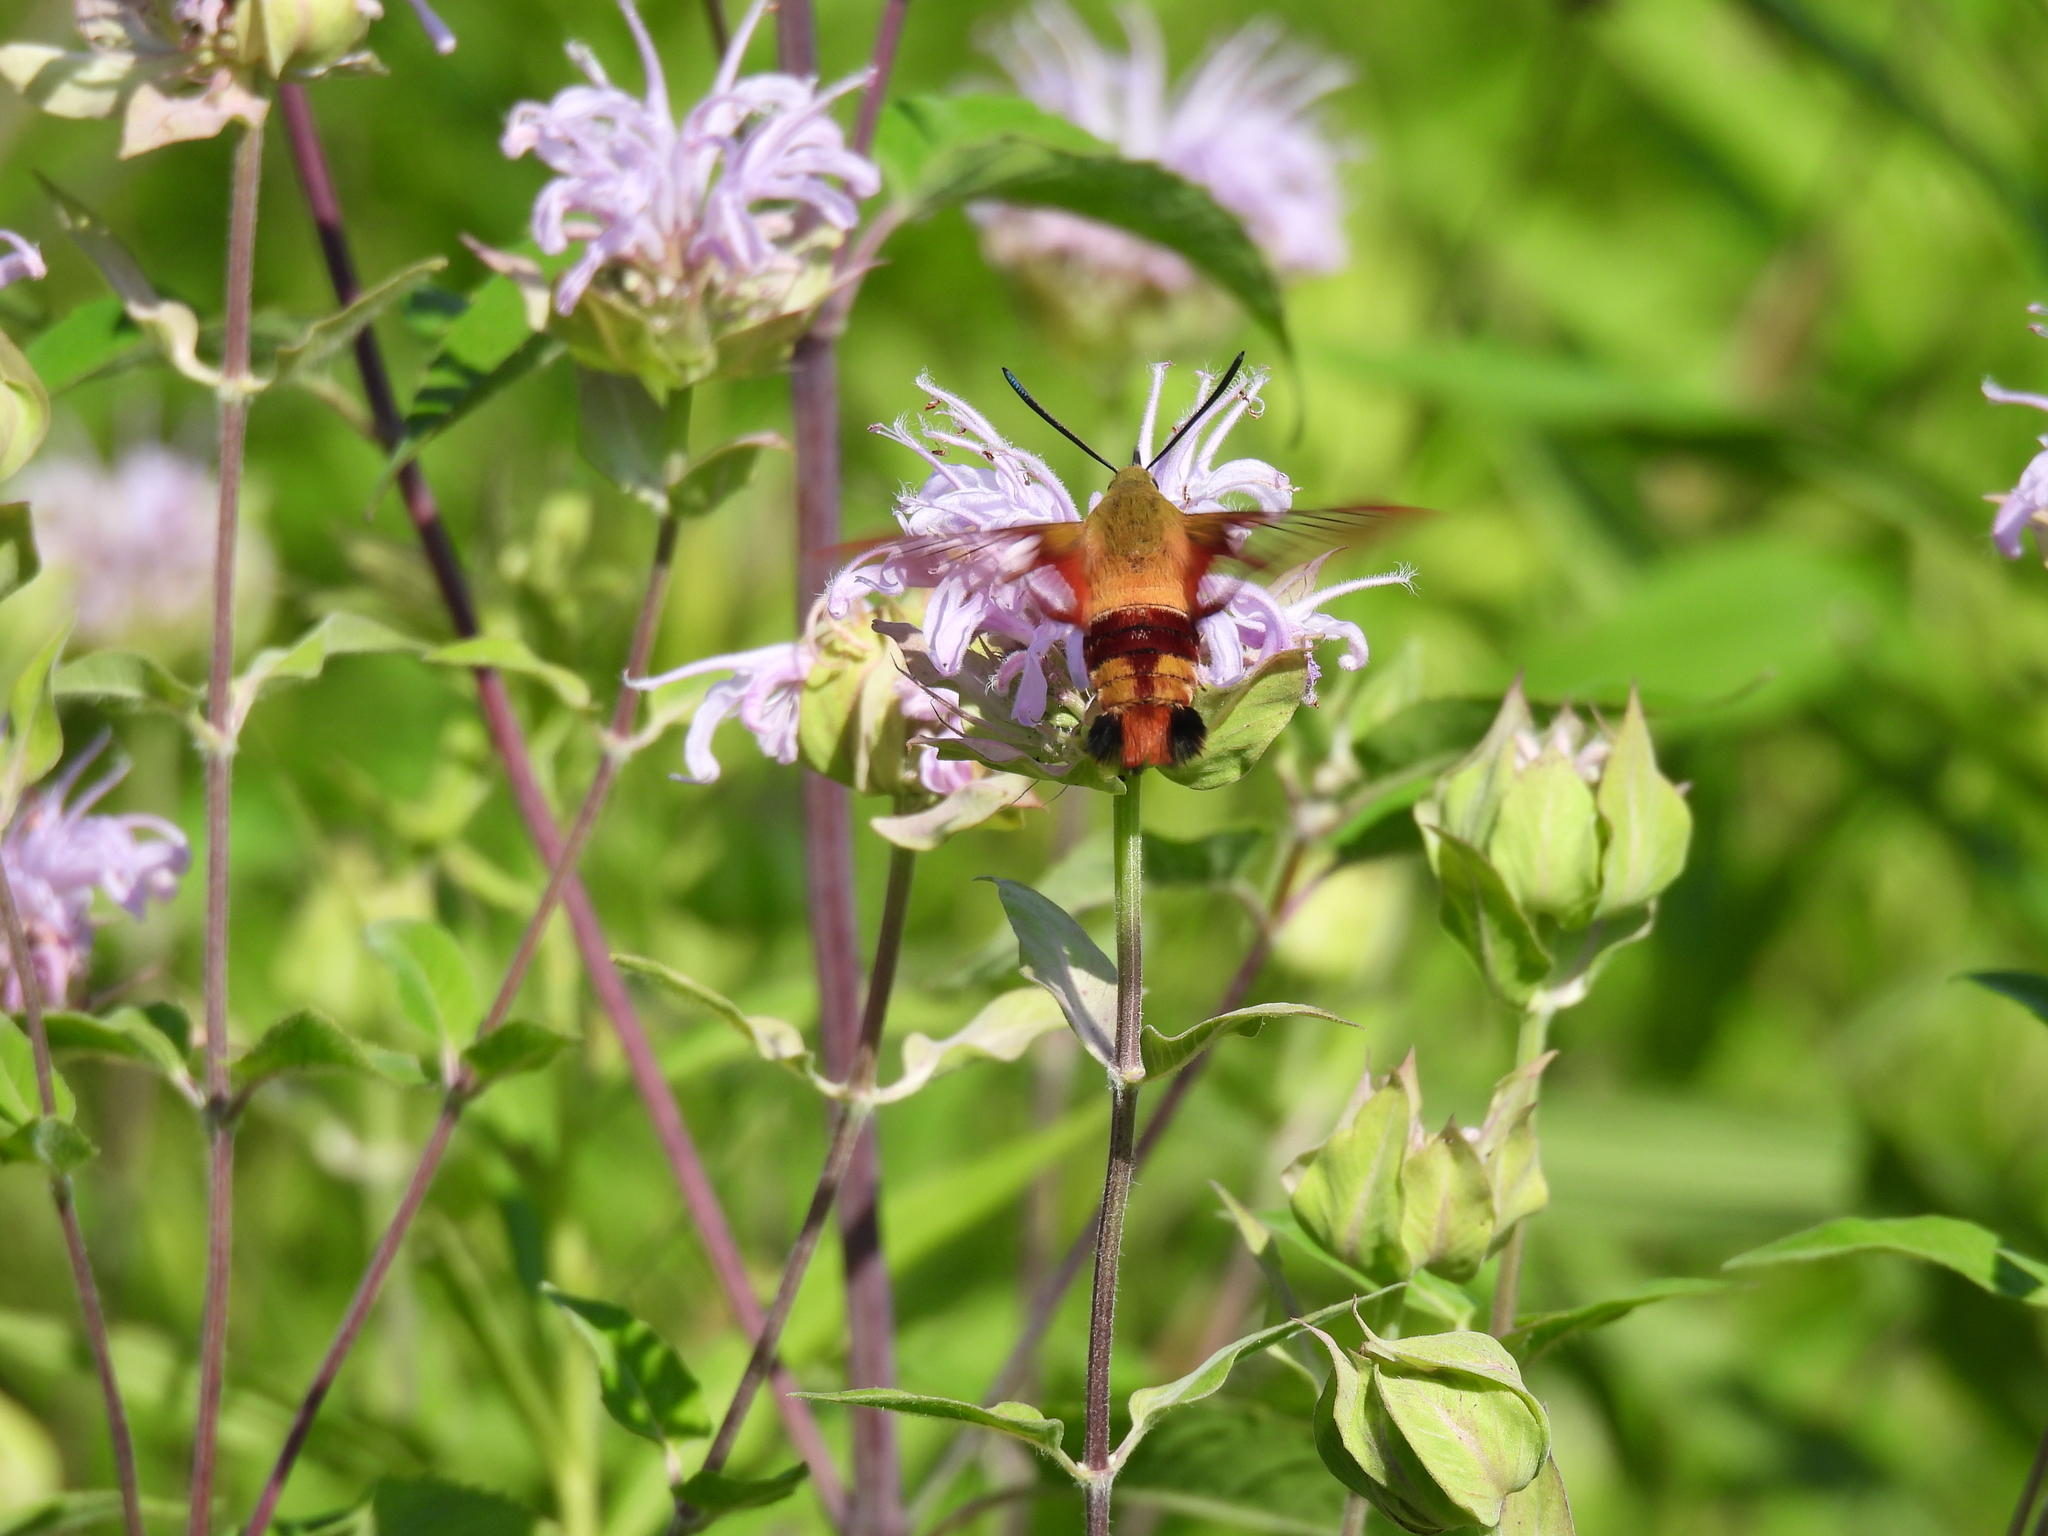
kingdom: Animalia
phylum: Arthropoda
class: Insecta
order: Lepidoptera
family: Sphingidae
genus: Hemaris
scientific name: Hemaris thysbe
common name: Common clear-wing
